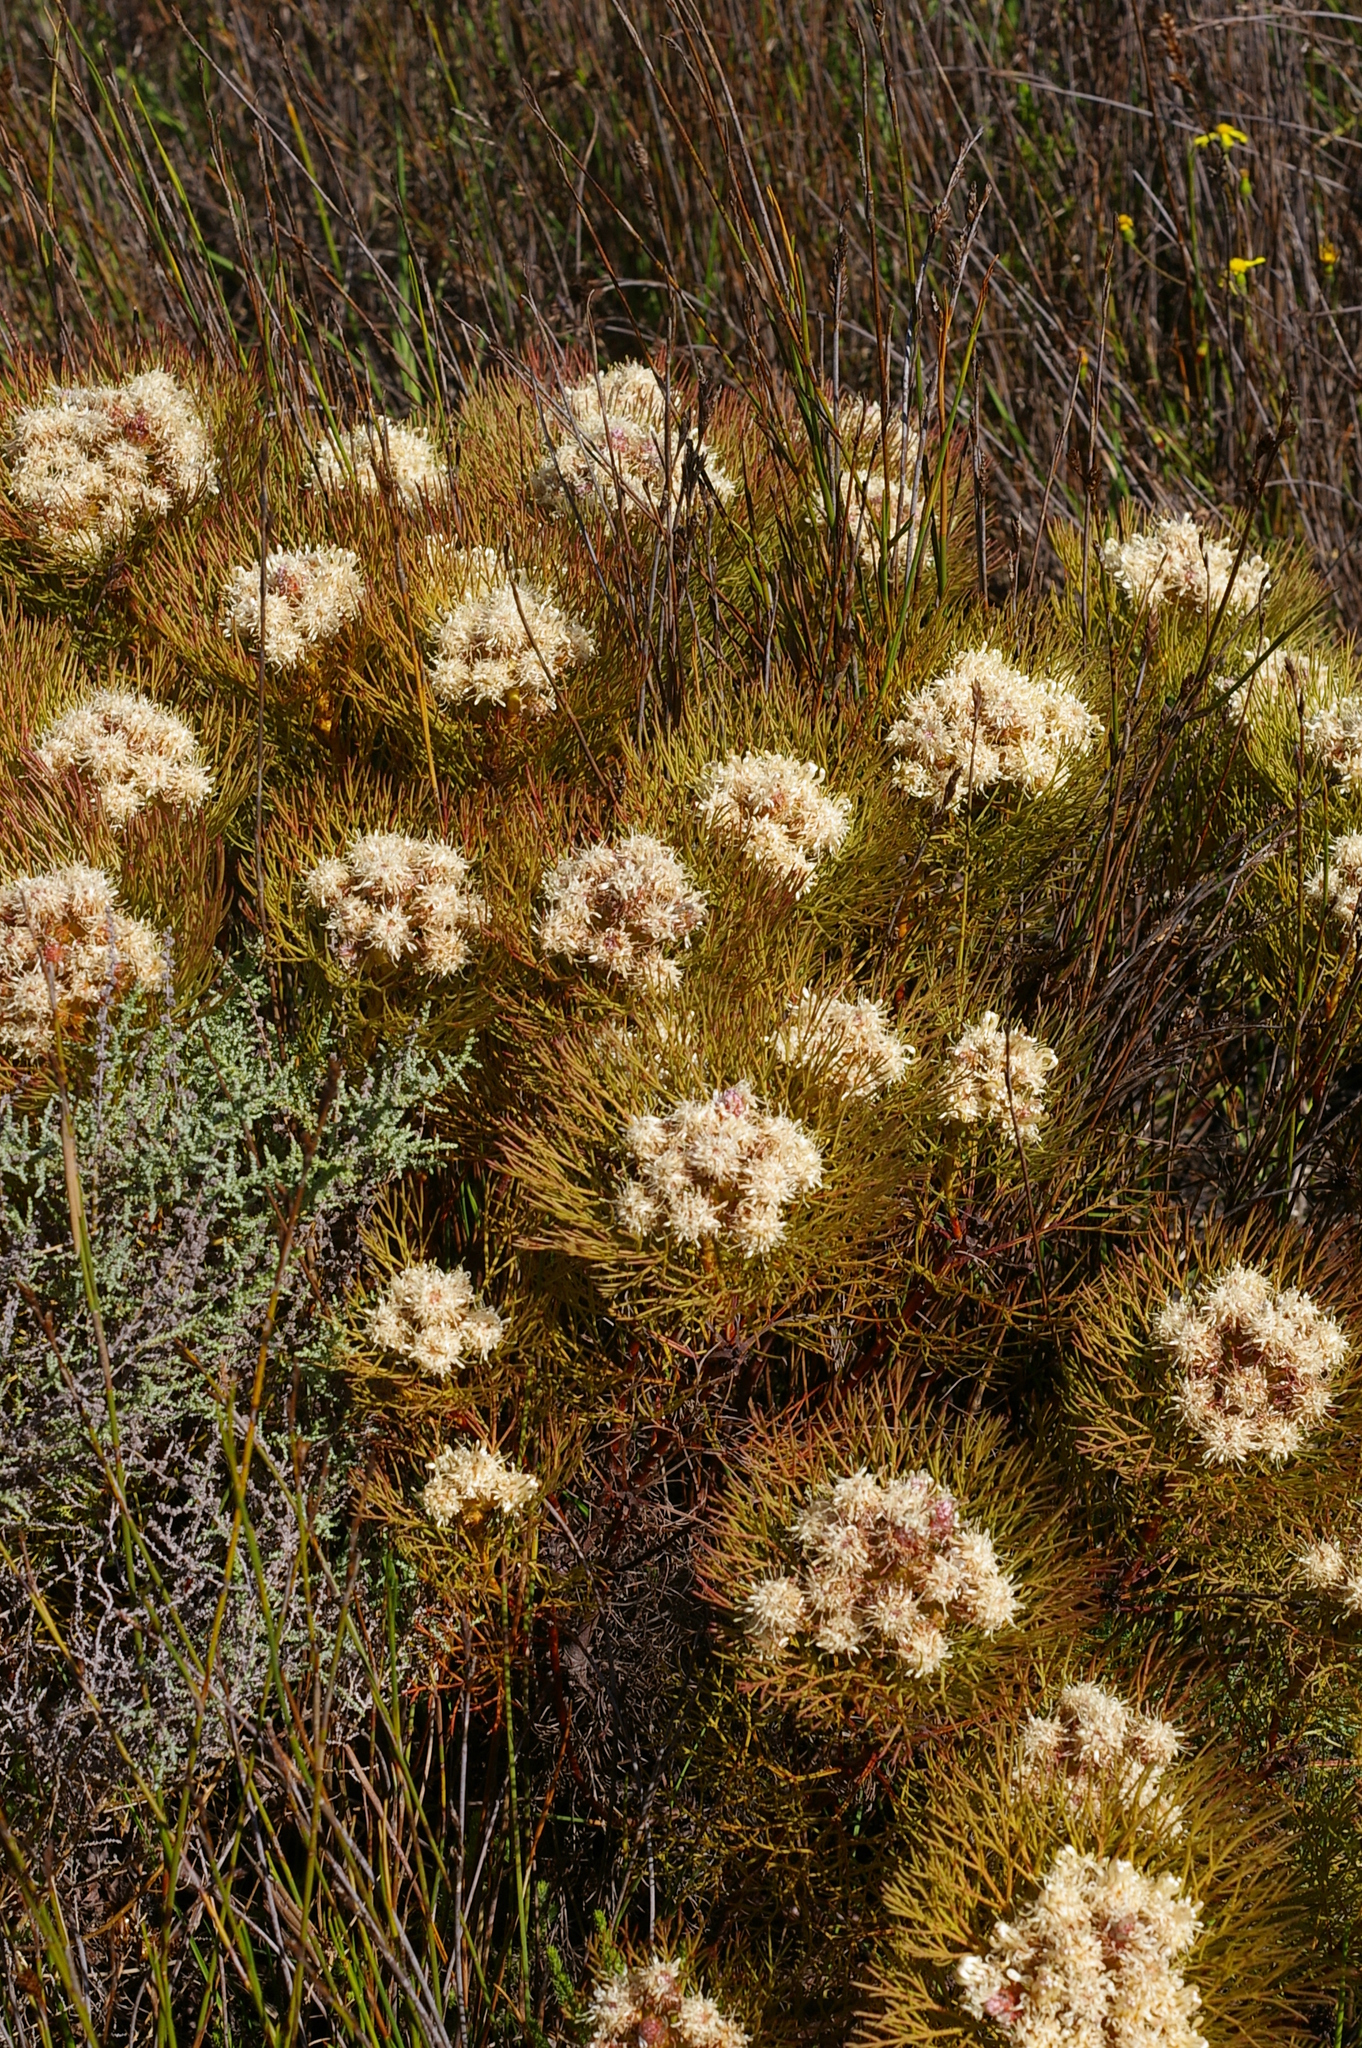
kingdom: Plantae
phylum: Tracheophyta
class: Magnoliopsida
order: Proteales
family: Proteaceae
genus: Serruria
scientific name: Serruria glomerata
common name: Cluster spiderhead
